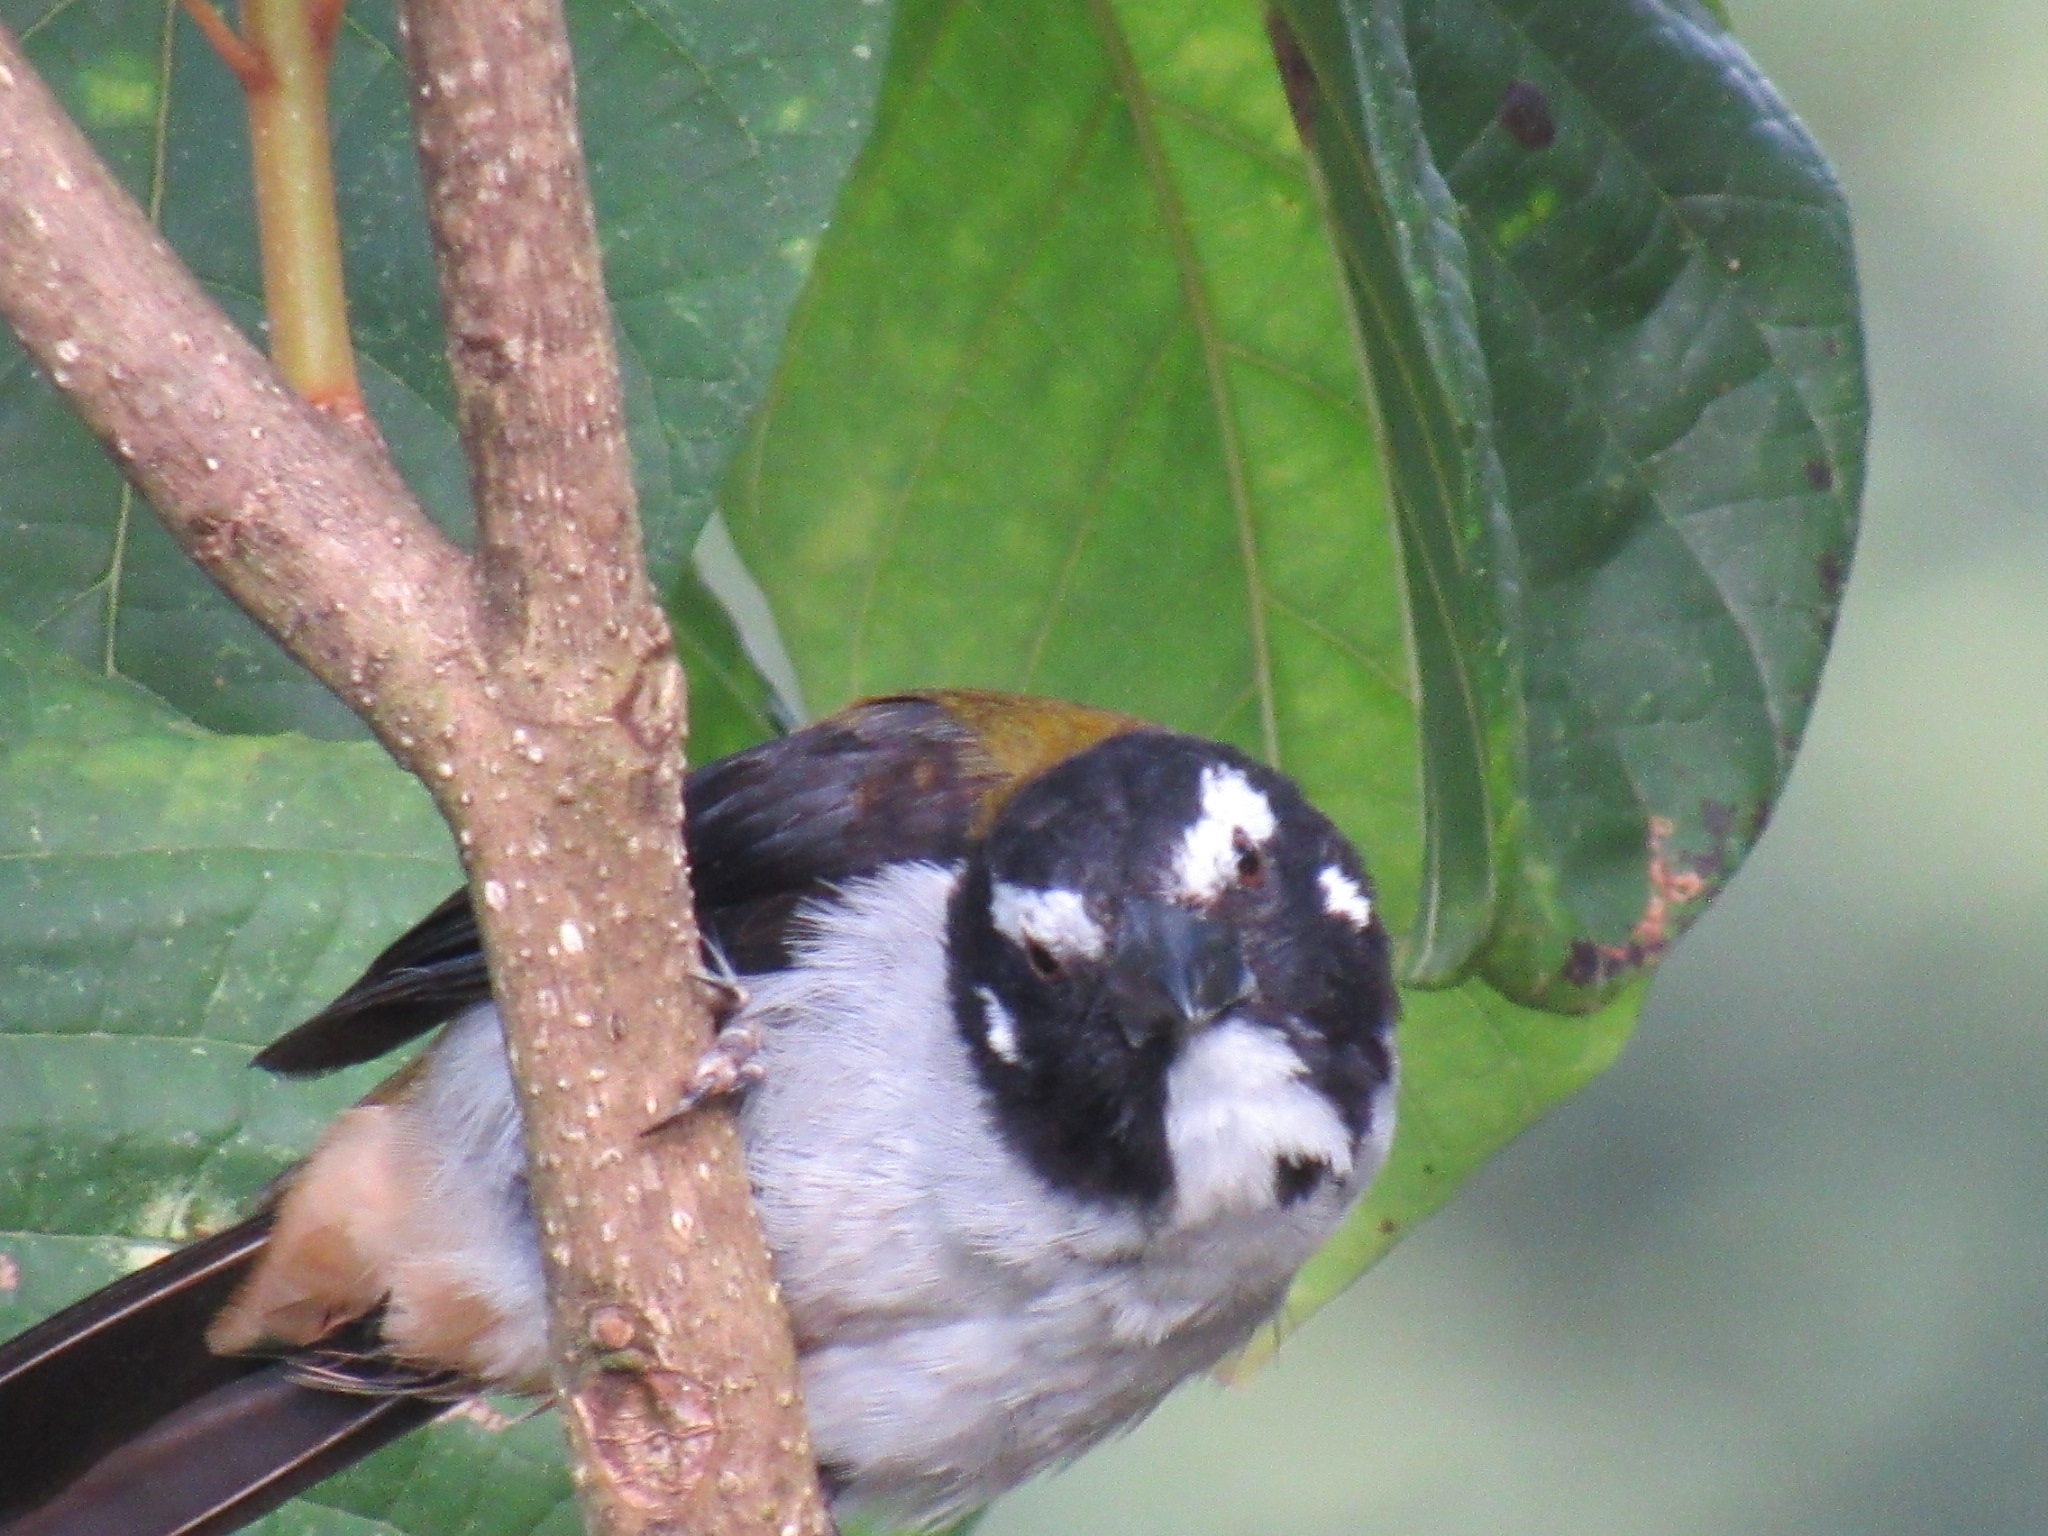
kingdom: Animalia
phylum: Chordata
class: Aves
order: Passeriformes
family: Thraupidae
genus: Saltator
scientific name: Saltator atripennis
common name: Black-winged saltator
